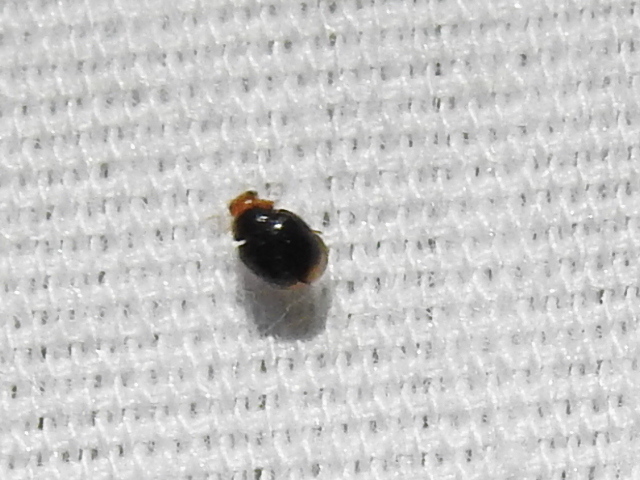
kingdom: Animalia
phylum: Arthropoda
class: Insecta
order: Coleoptera
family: Coccinellidae
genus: Diomus
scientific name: Diomus terminatus
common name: Firefly duskyling
